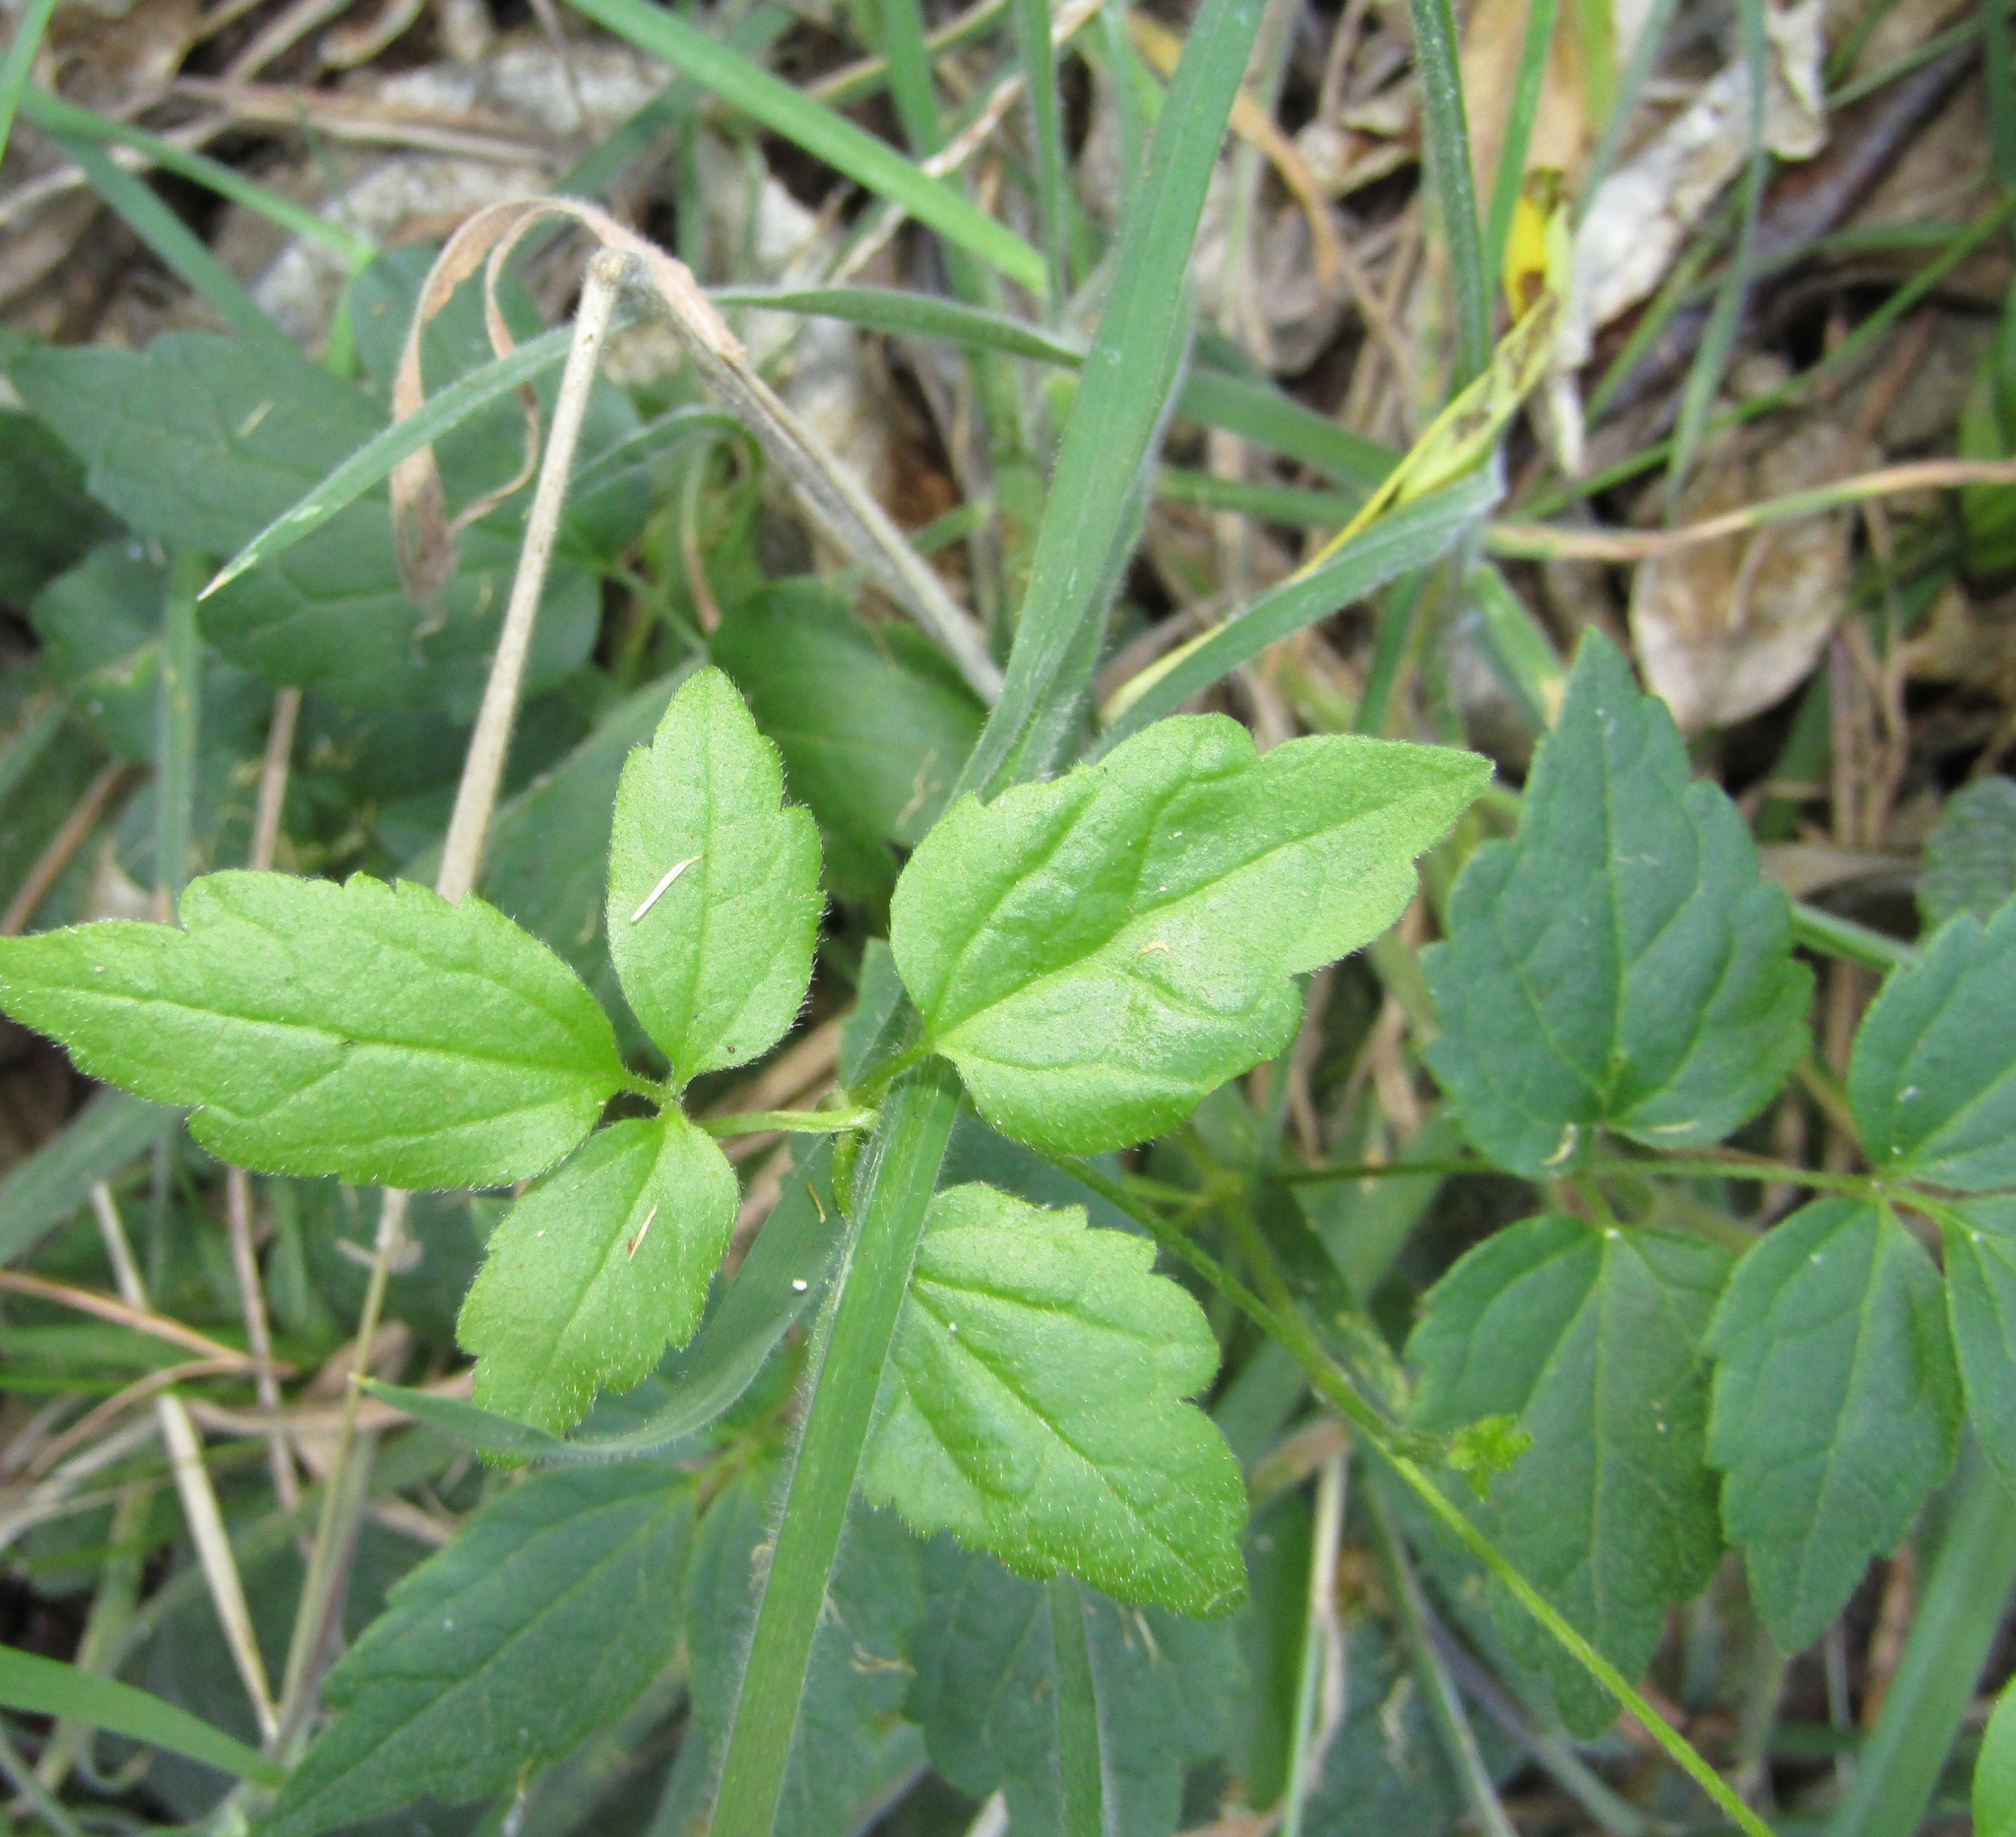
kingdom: Plantae
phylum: Tracheophyta
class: Magnoliopsida
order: Ranunculales
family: Ranunculaceae
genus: Clematis
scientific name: Clematis vitalba
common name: Evergreen clematis
